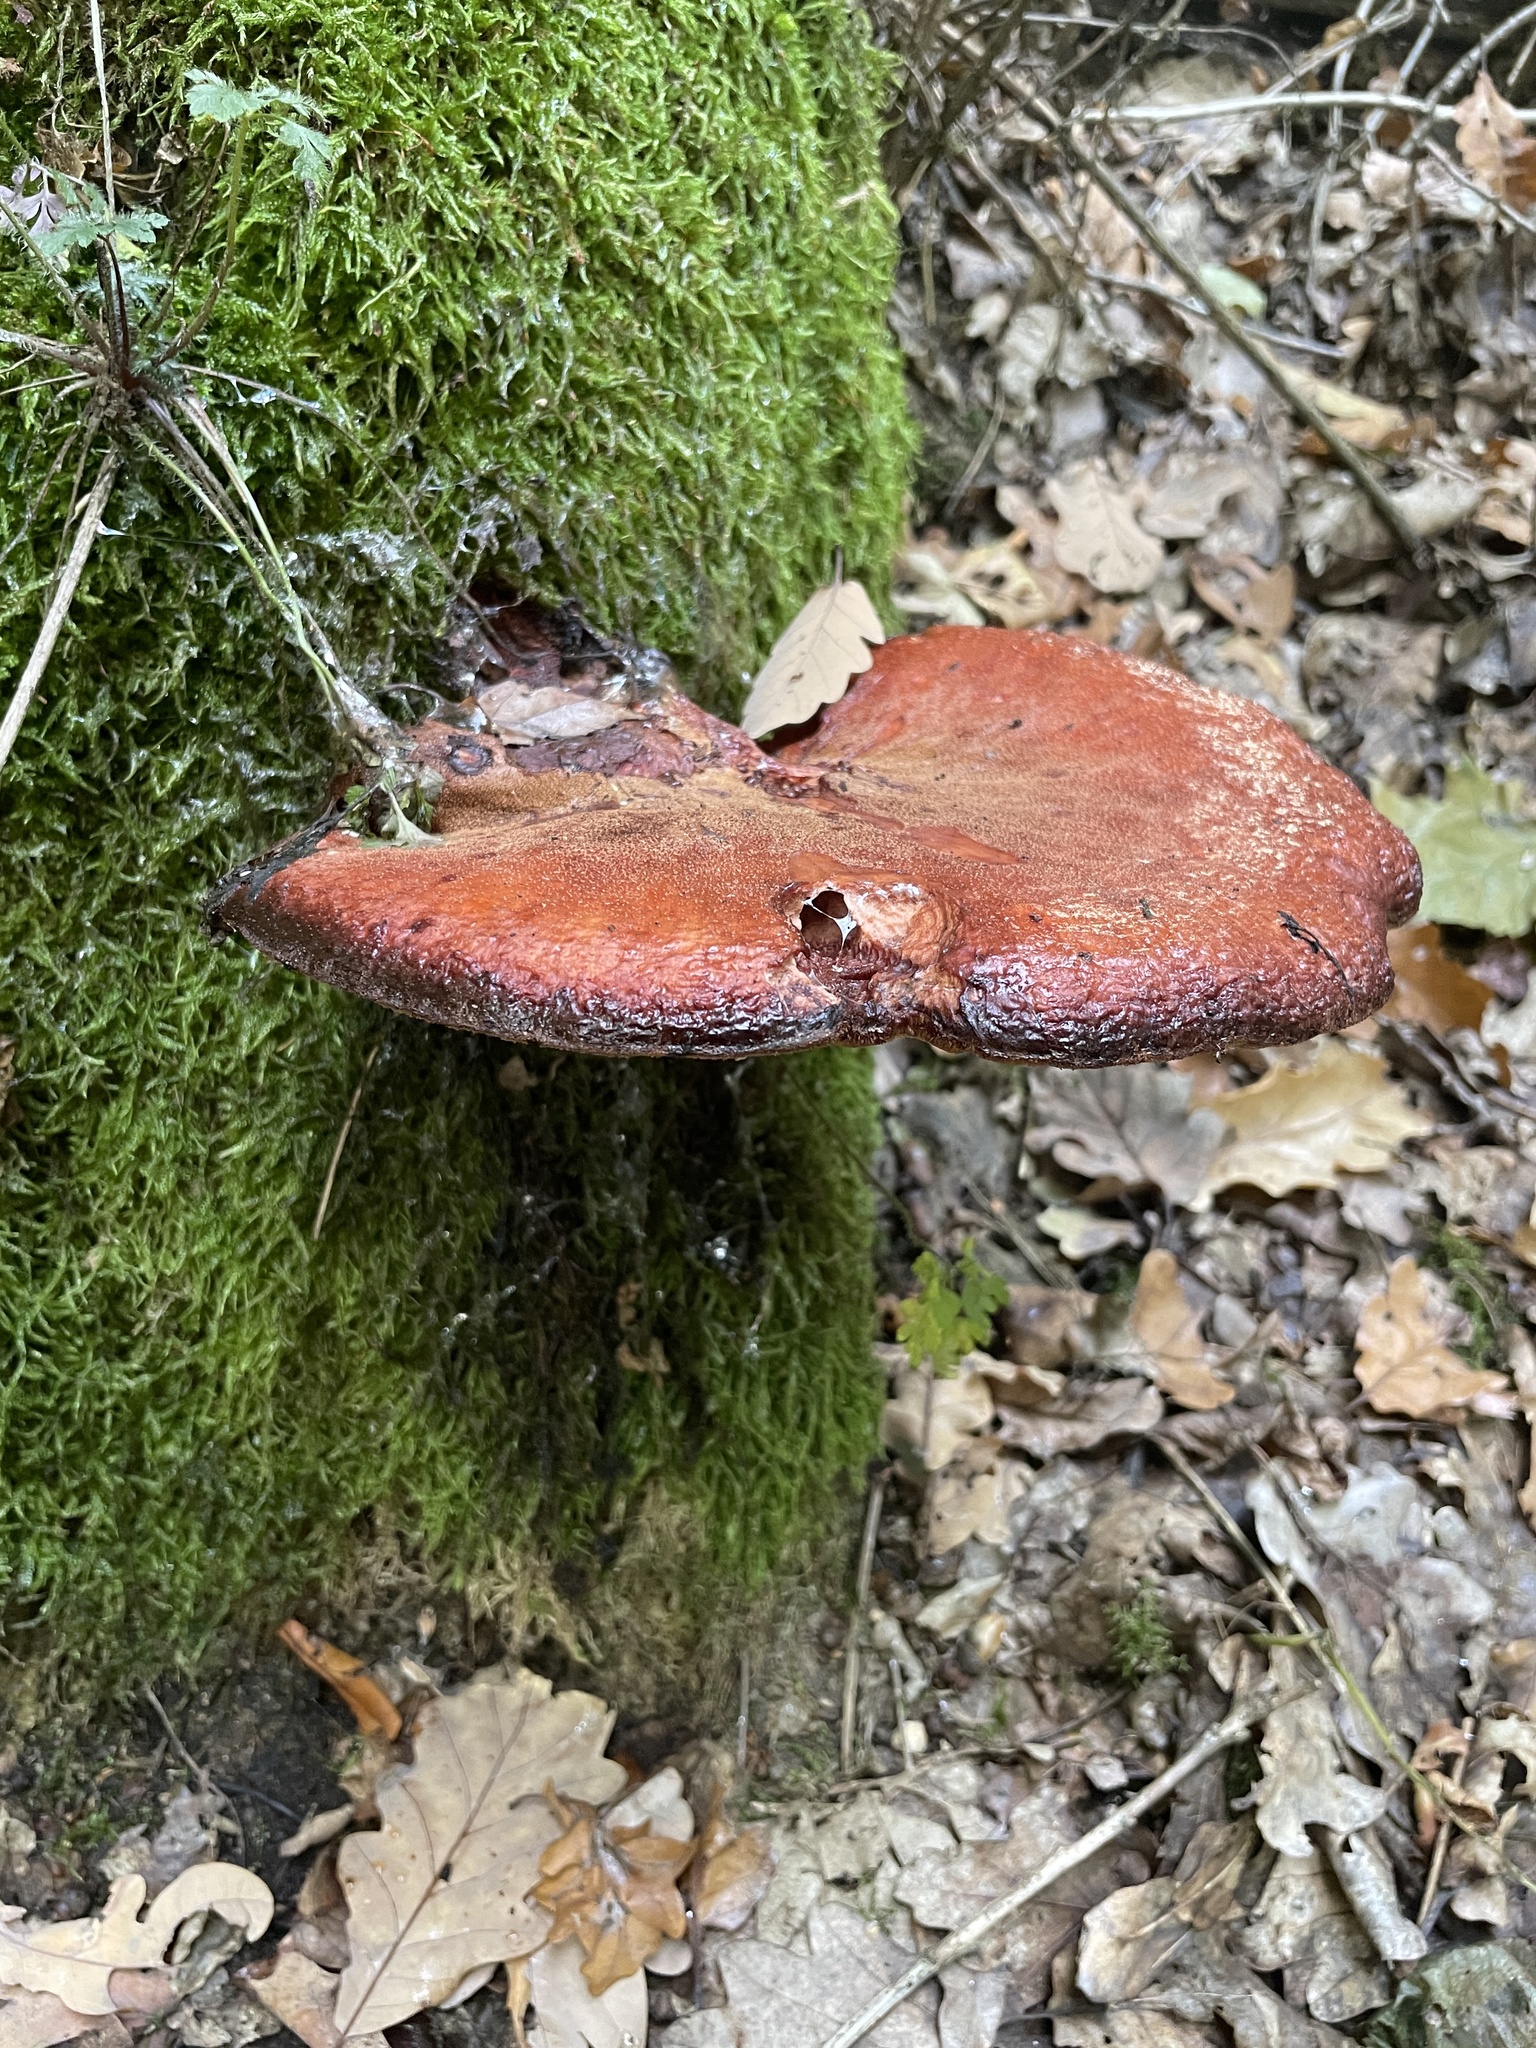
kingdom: Fungi
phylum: Basidiomycota
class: Agaricomycetes
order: Agaricales
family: Fistulinaceae
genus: Fistulina
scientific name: Fistulina hepatica
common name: Beef-steak fungus
